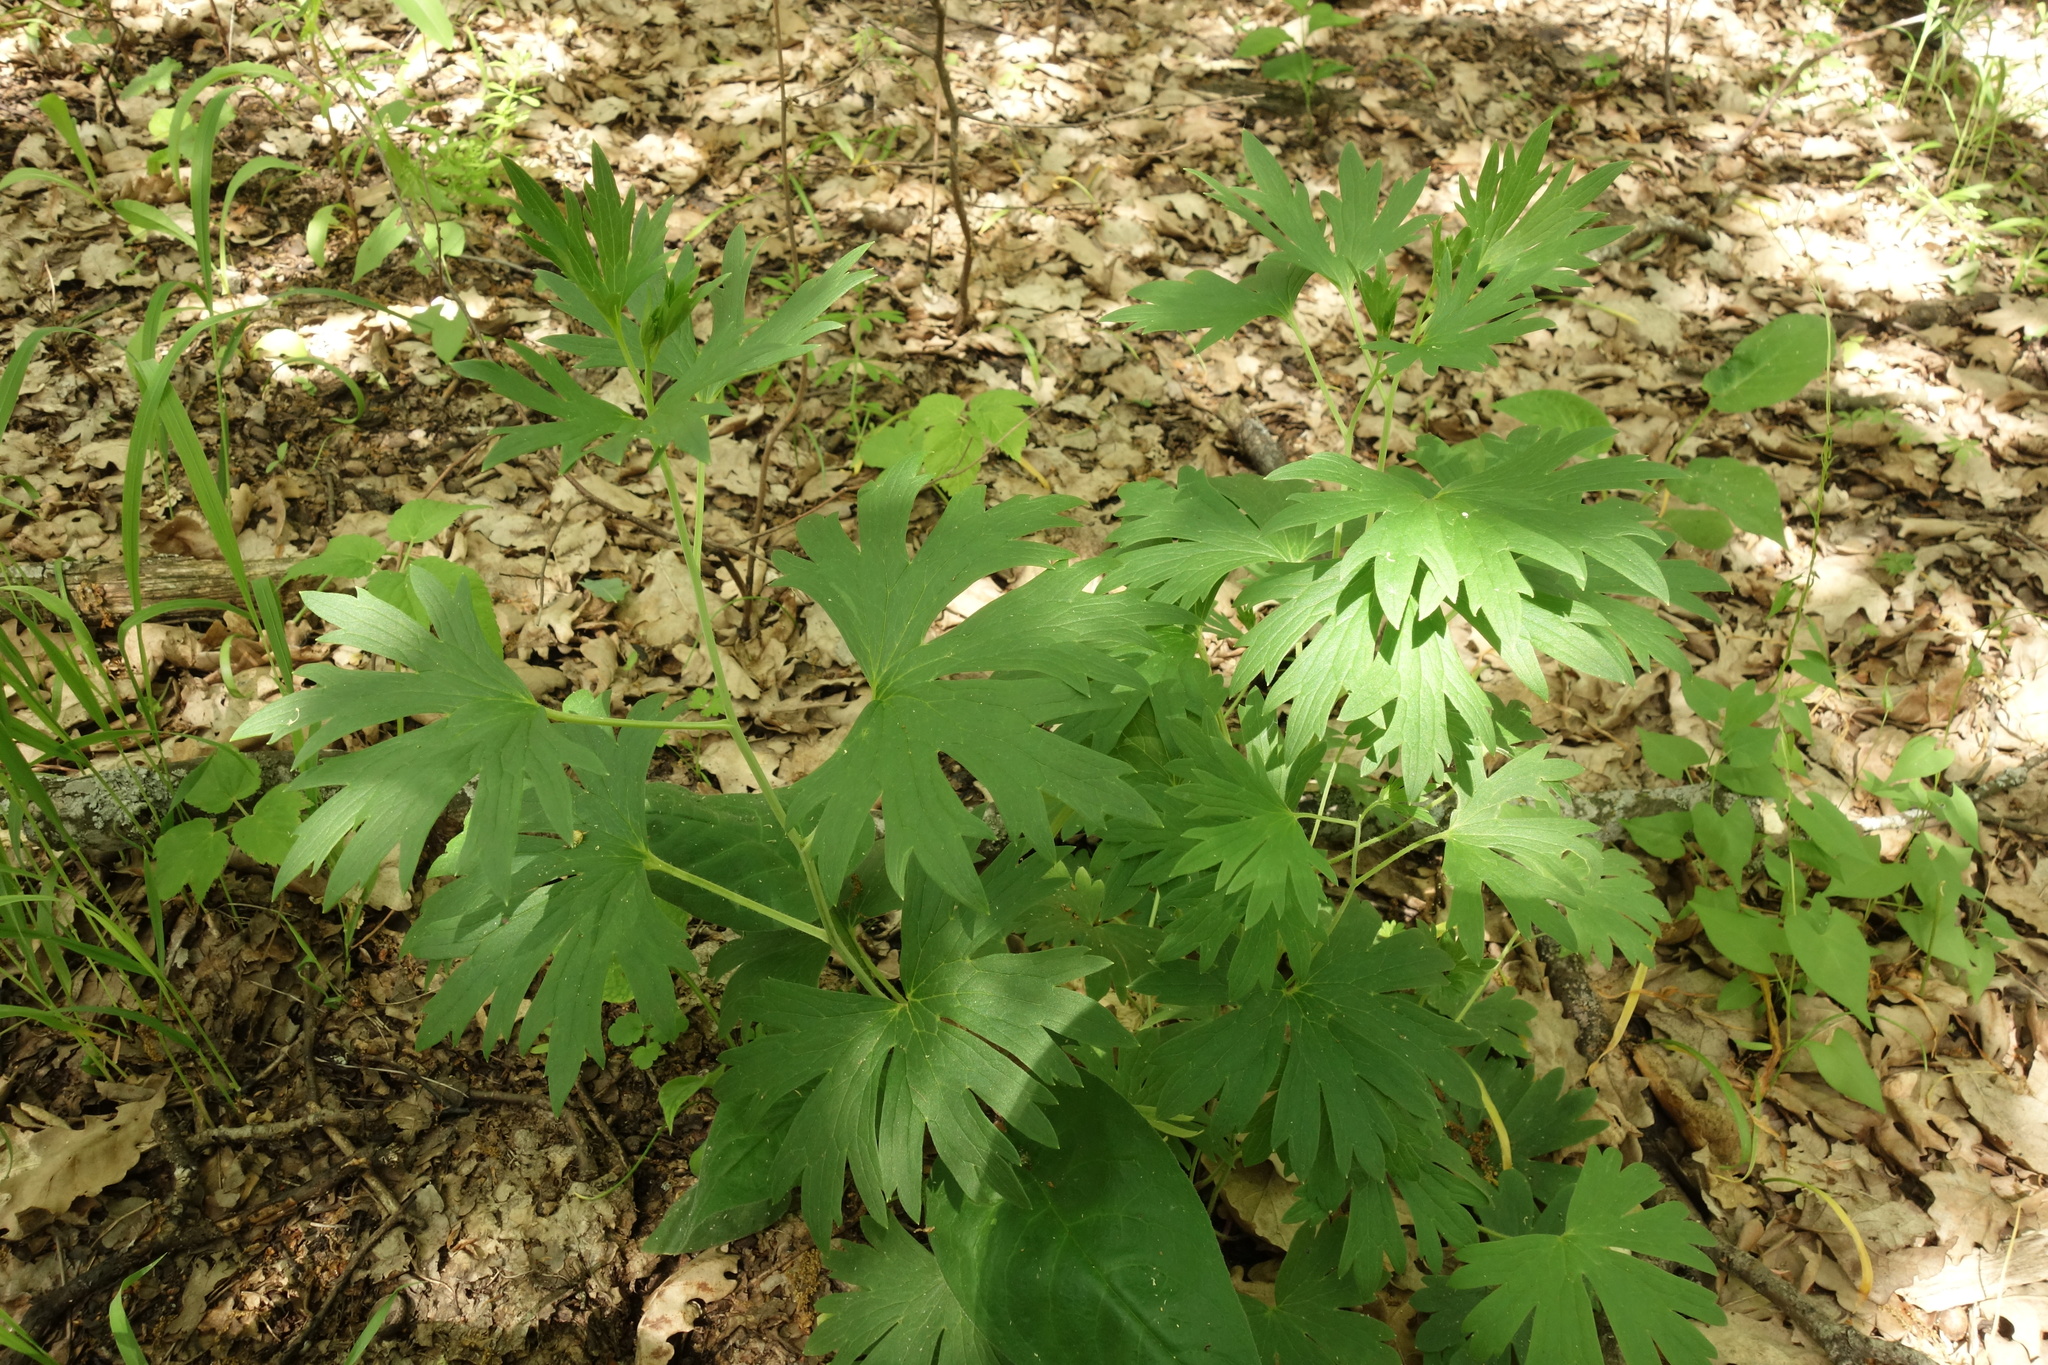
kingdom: Plantae
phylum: Tracheophyta
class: Magnoliopsida
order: Ranunculales
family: Ranunculaceae
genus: Delphinium
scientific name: Delphinium cuneatum
